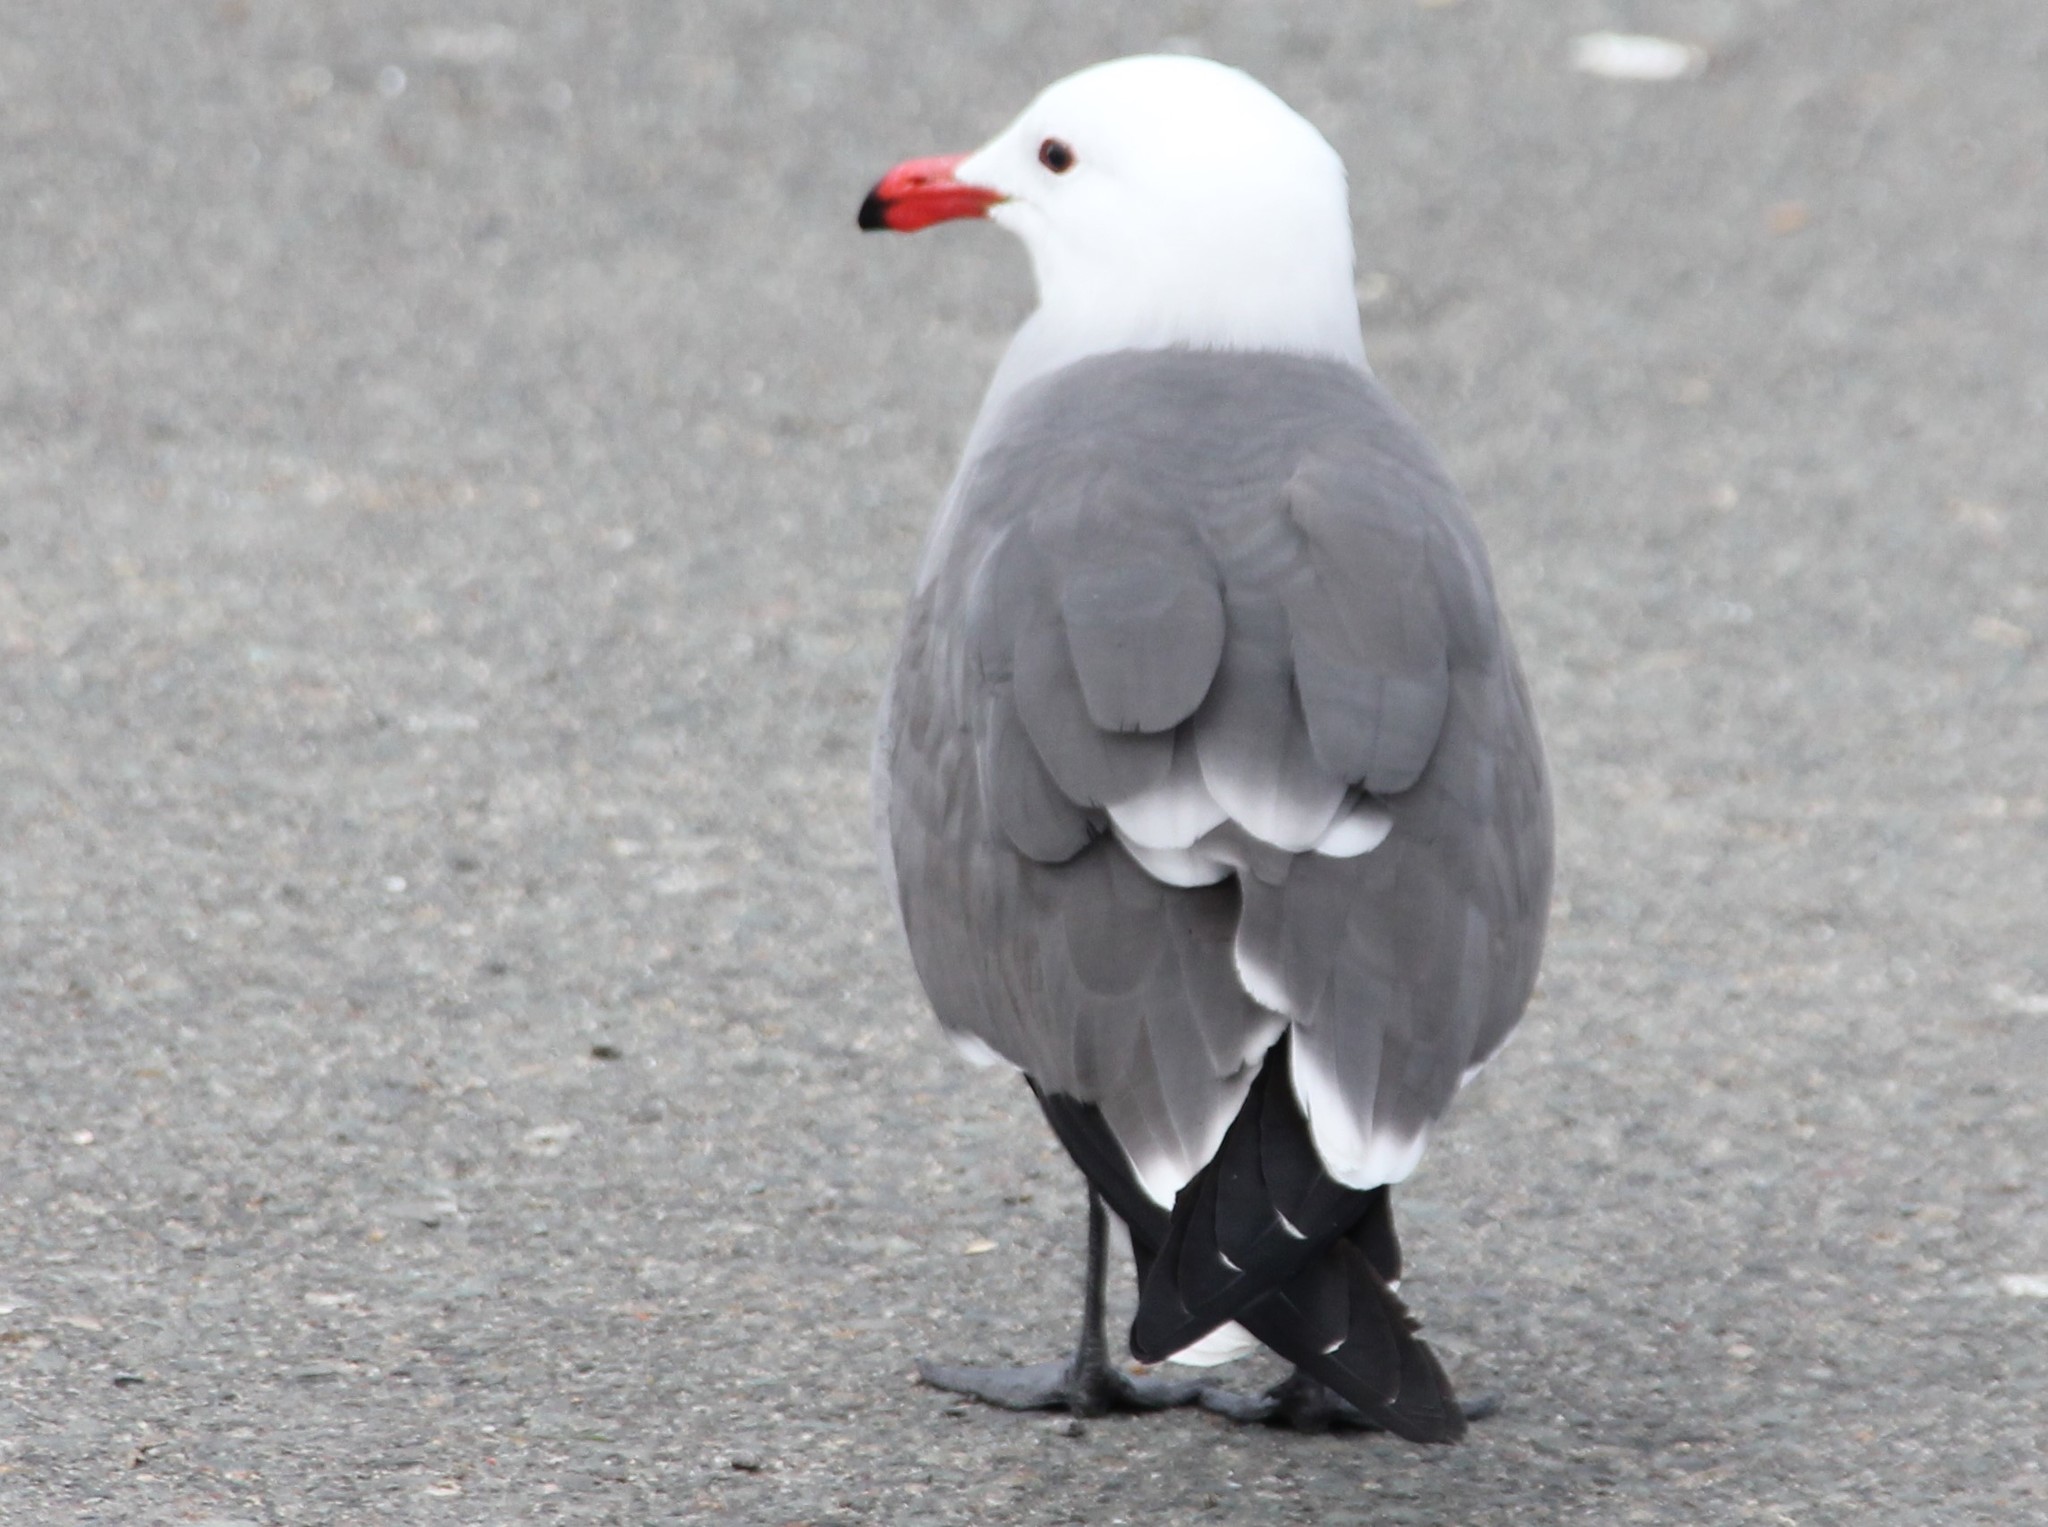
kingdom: Animalia
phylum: Chordata
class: Aves
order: Charadriiformes
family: Laridae
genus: Larus
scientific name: Larus heermanni
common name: Heermann's gull
